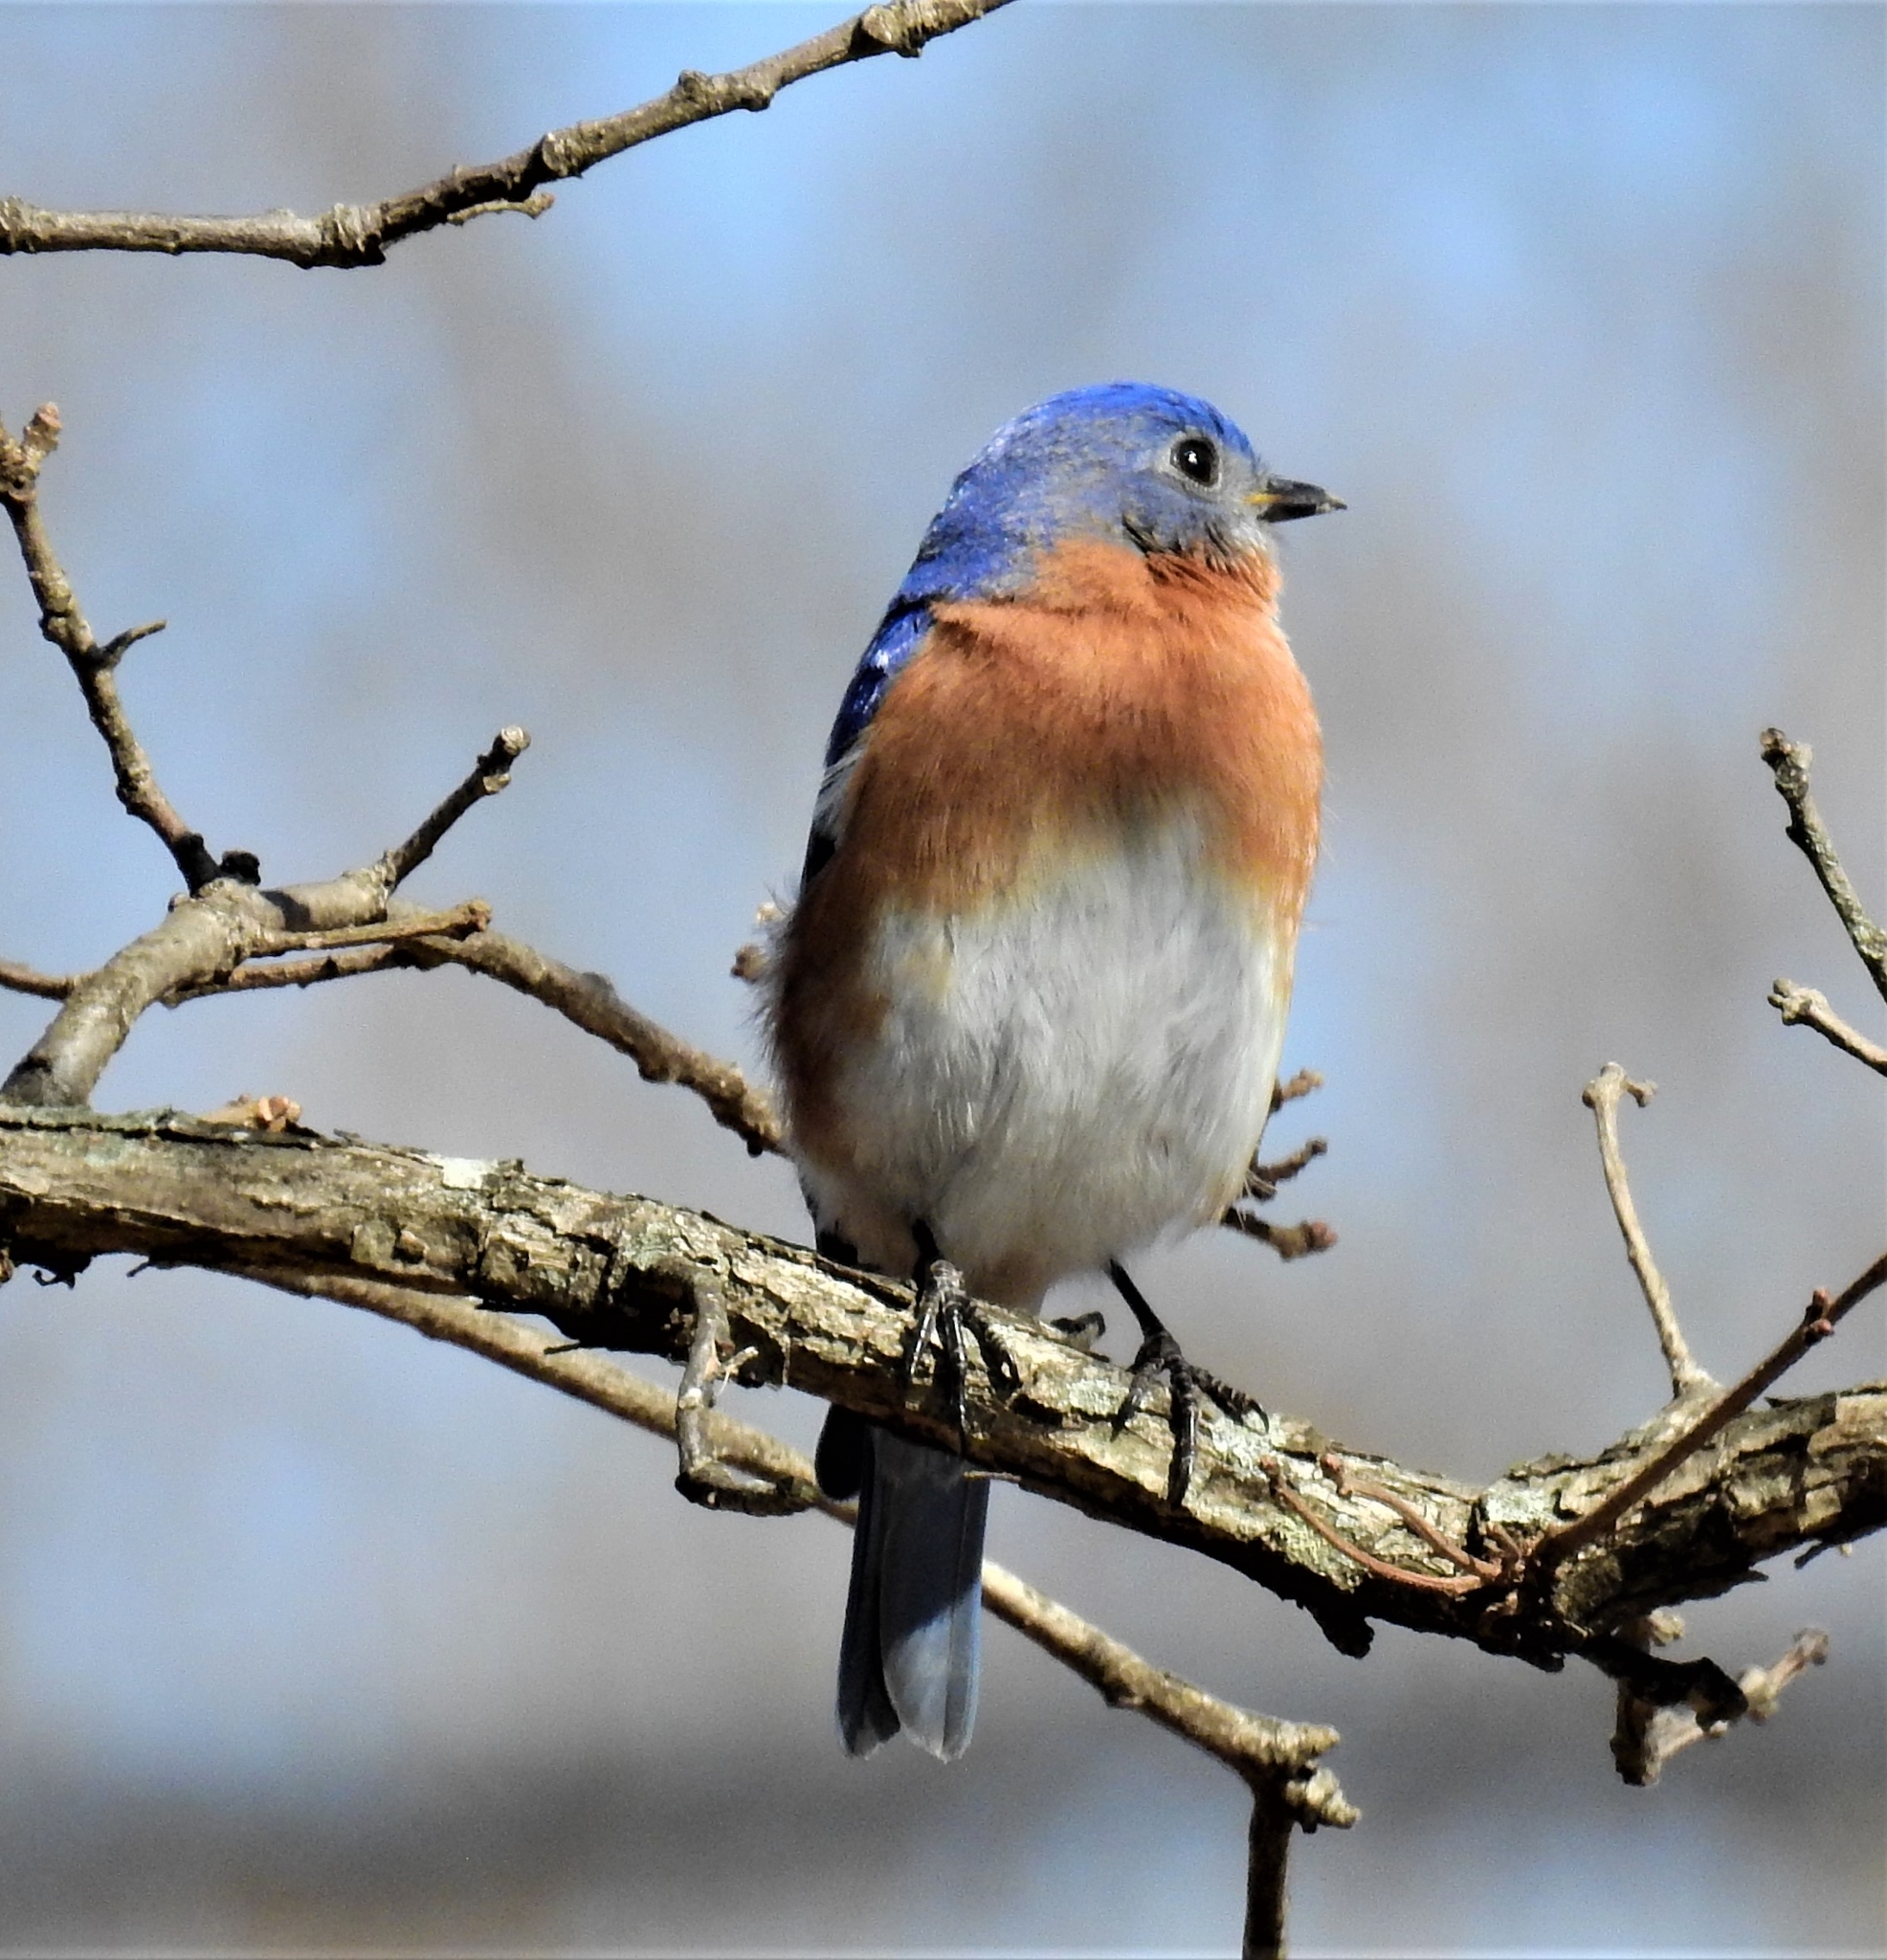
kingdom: Animalia
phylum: Chordata
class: Aves
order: Passeriformes
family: Turdidae
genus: Sialia
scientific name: Sialia sialis
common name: Eastern bluebird
